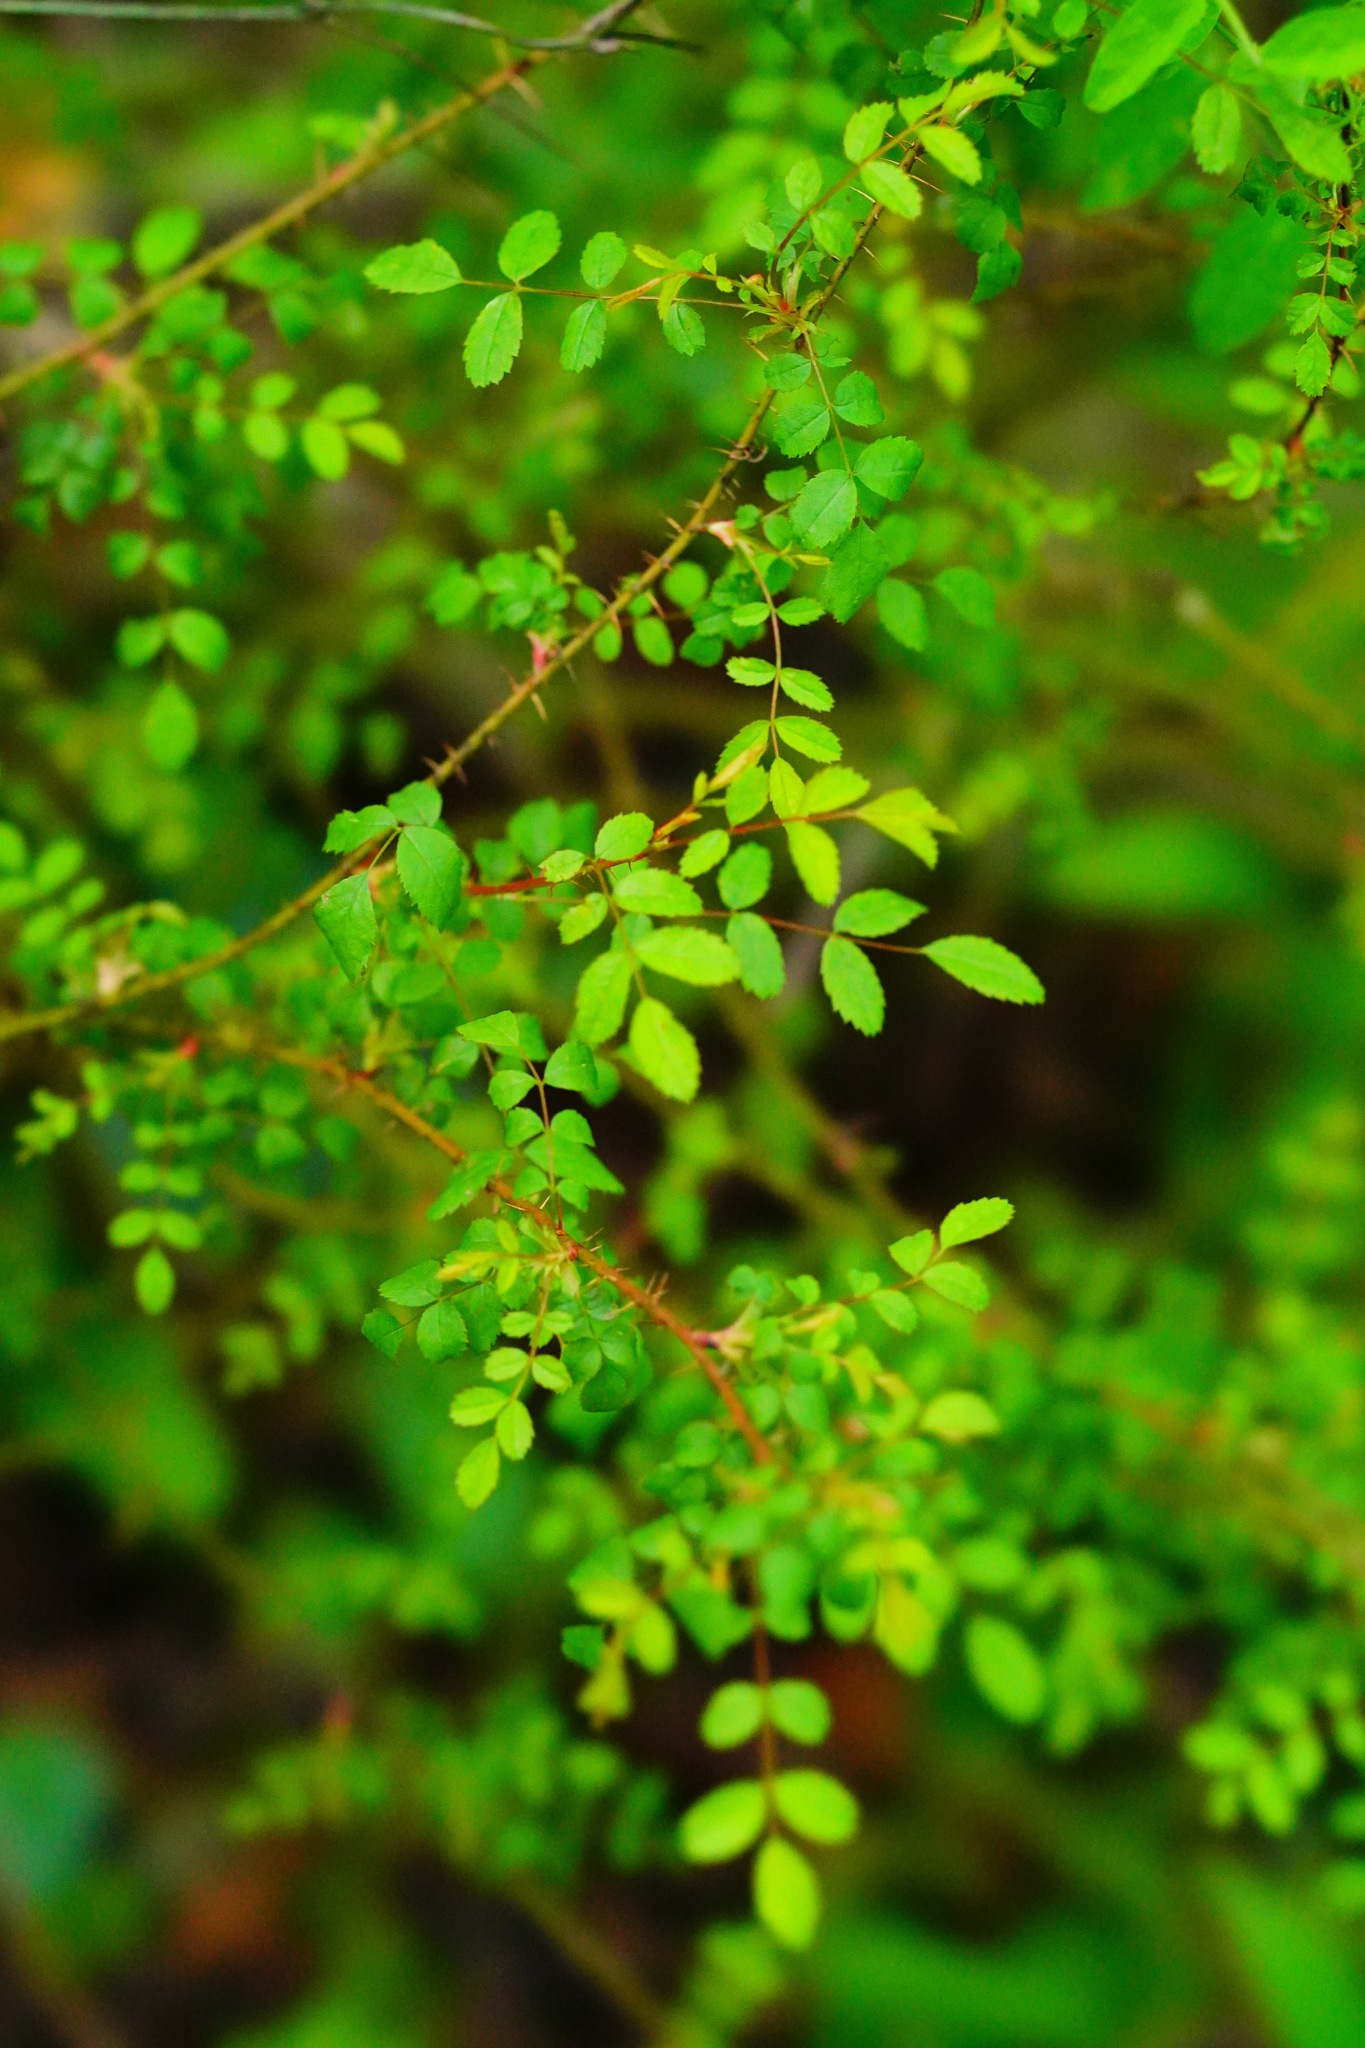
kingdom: Plantae
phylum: Tracheophyta
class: Magnoliopsida
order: Rosales
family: Rosaceae
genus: Rosa
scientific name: Rosa gymnocarpa
